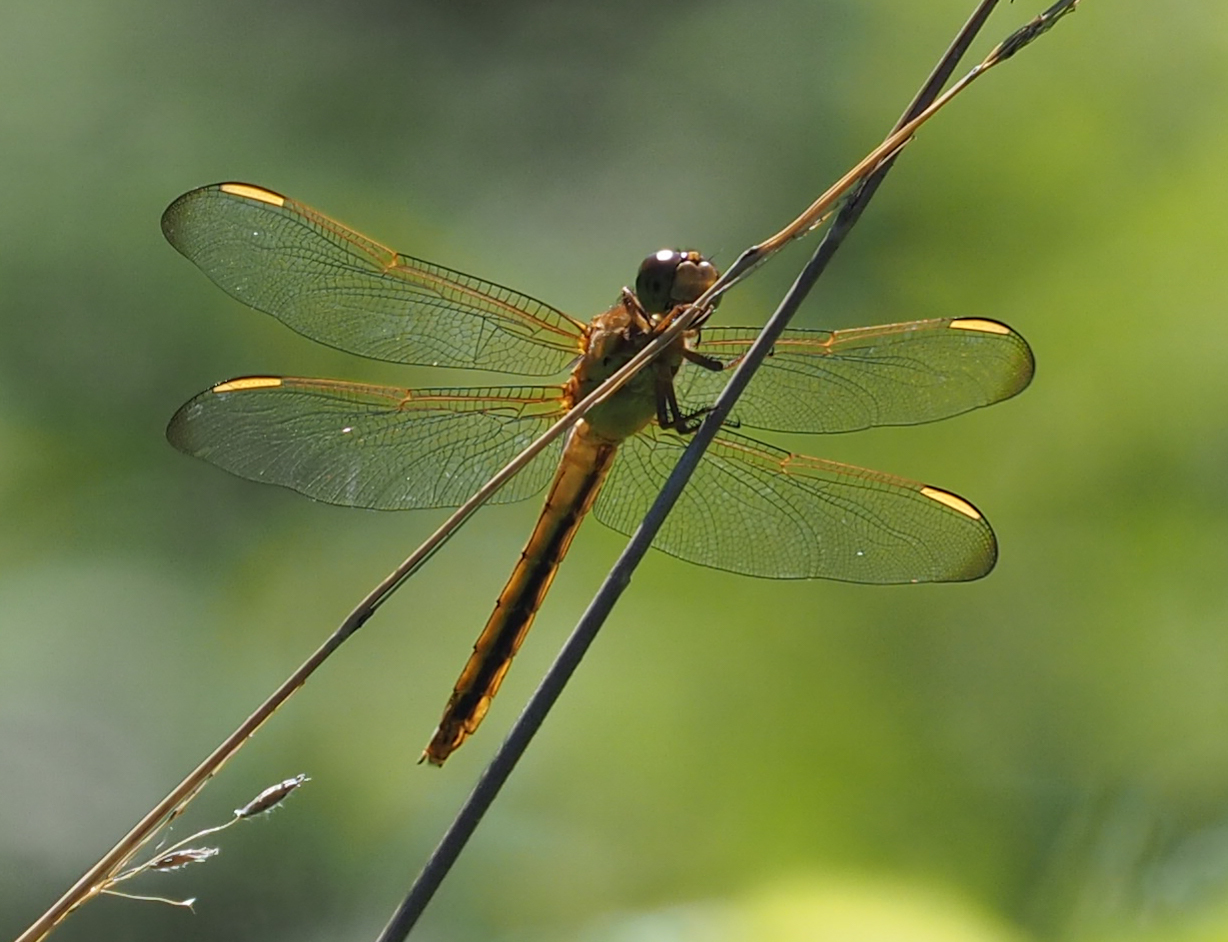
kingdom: Animalia
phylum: Arthropoda
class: Insecta
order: Odonata
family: Libellulidae
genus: Libellula
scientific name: Libellula needhami
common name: Needham's skimmer
